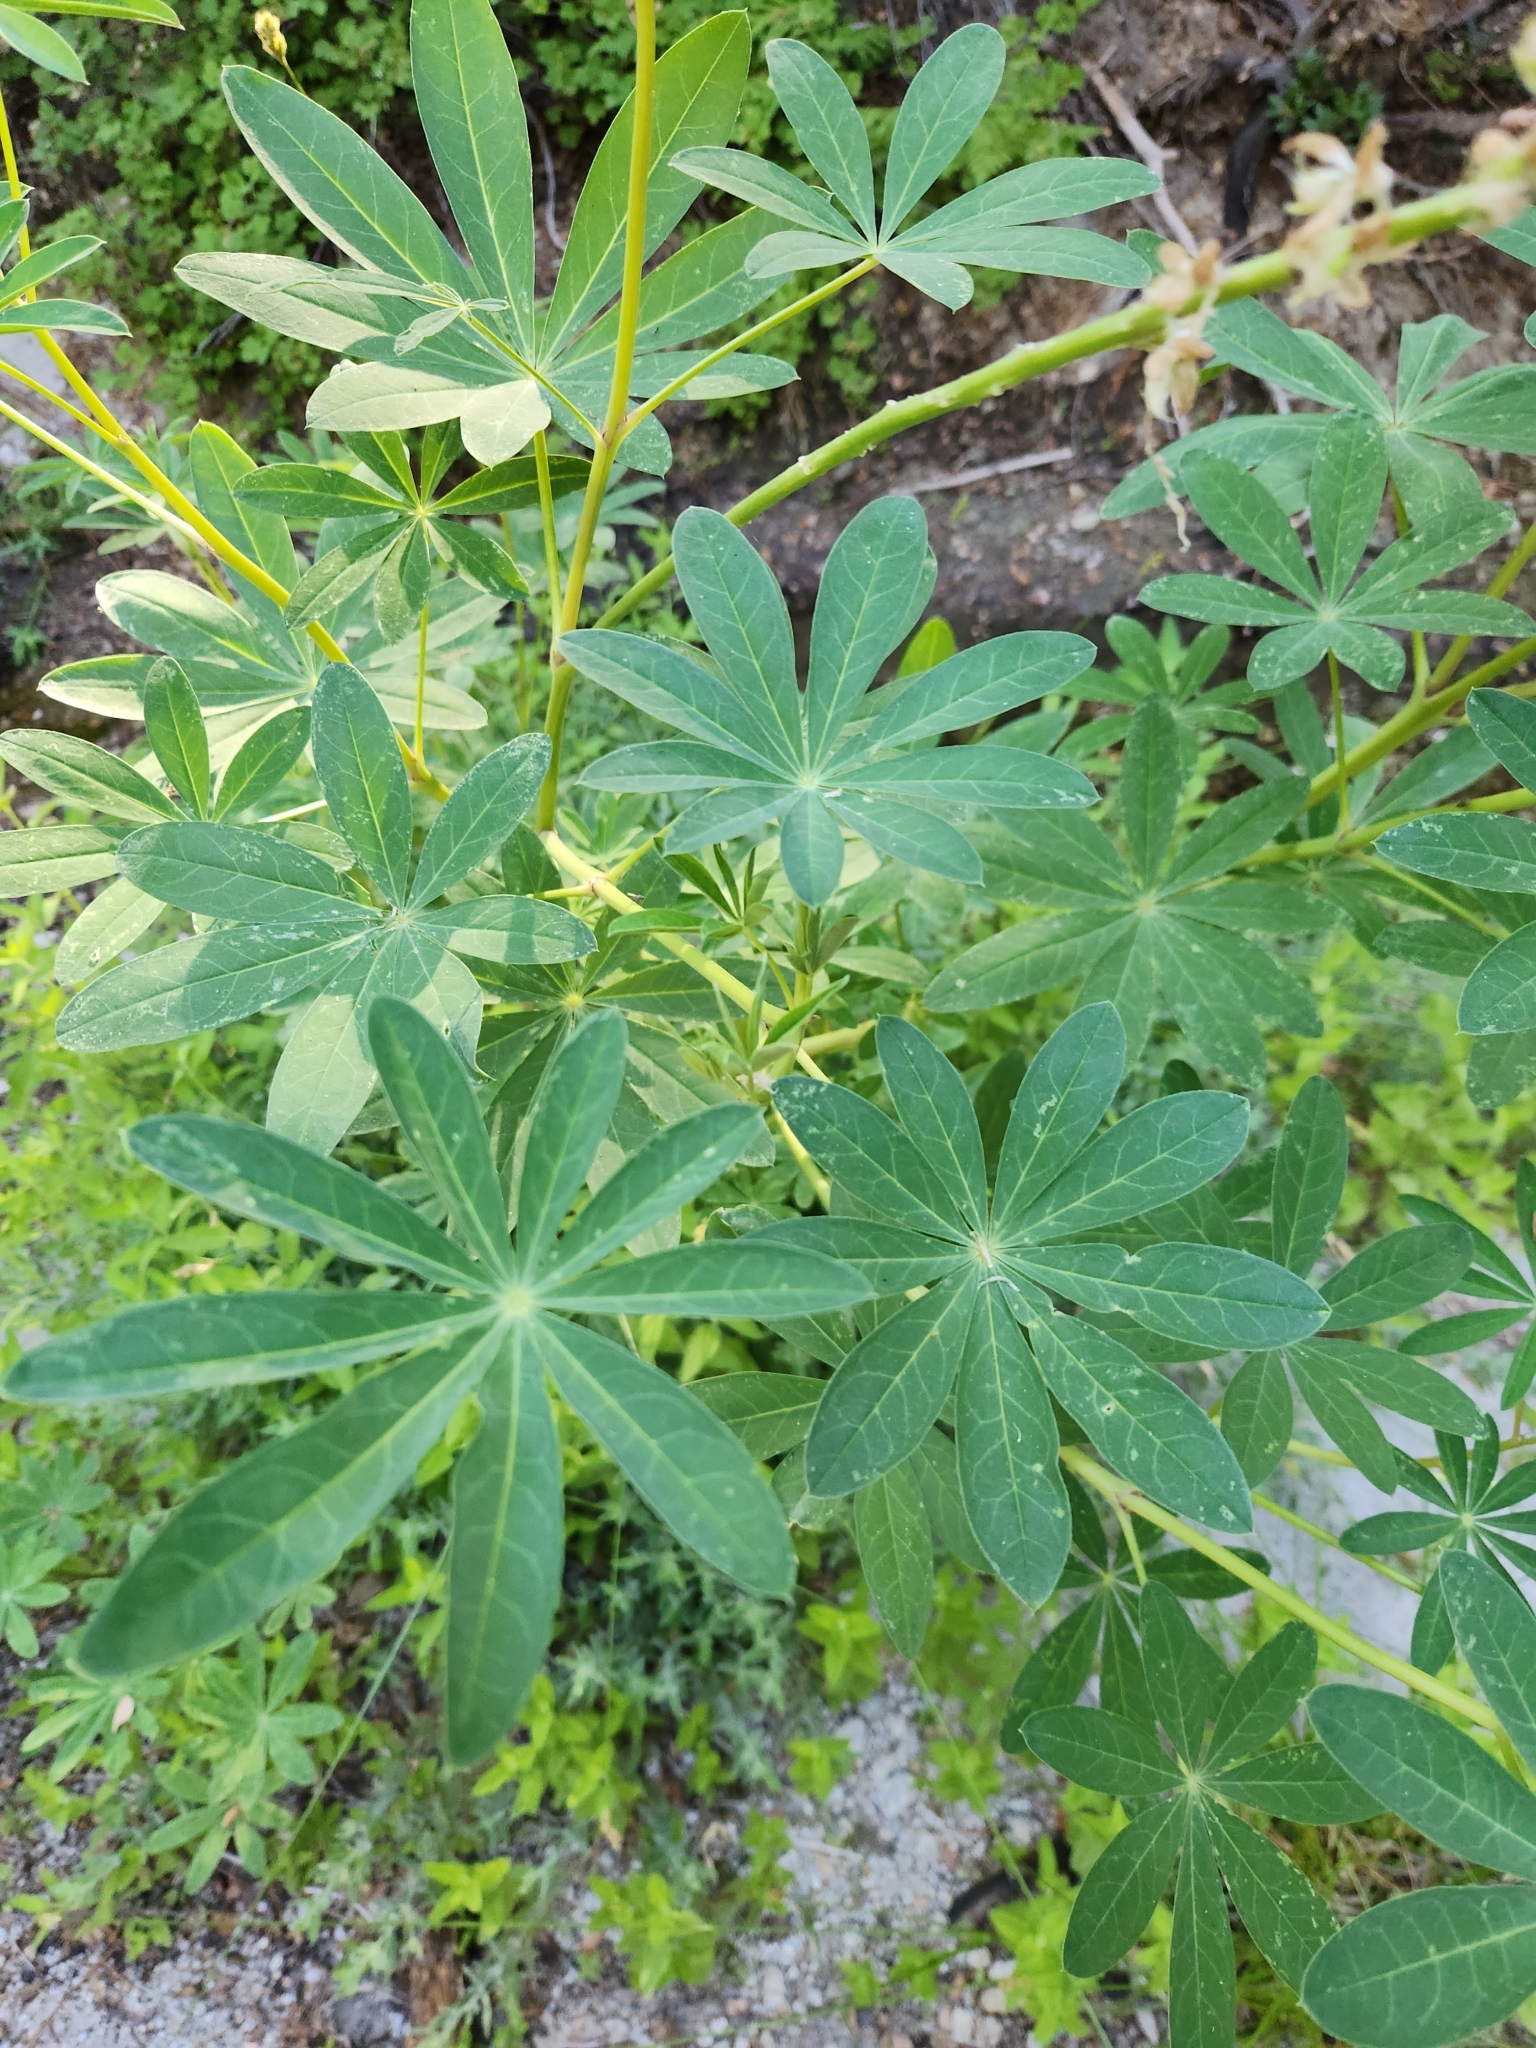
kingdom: Plantae
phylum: Tracheophyta
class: Magnoliopsida
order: Fabales
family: Fabaceae
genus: Lupinus
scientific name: Lupinus latifolius
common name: Broad-leaved lupine
